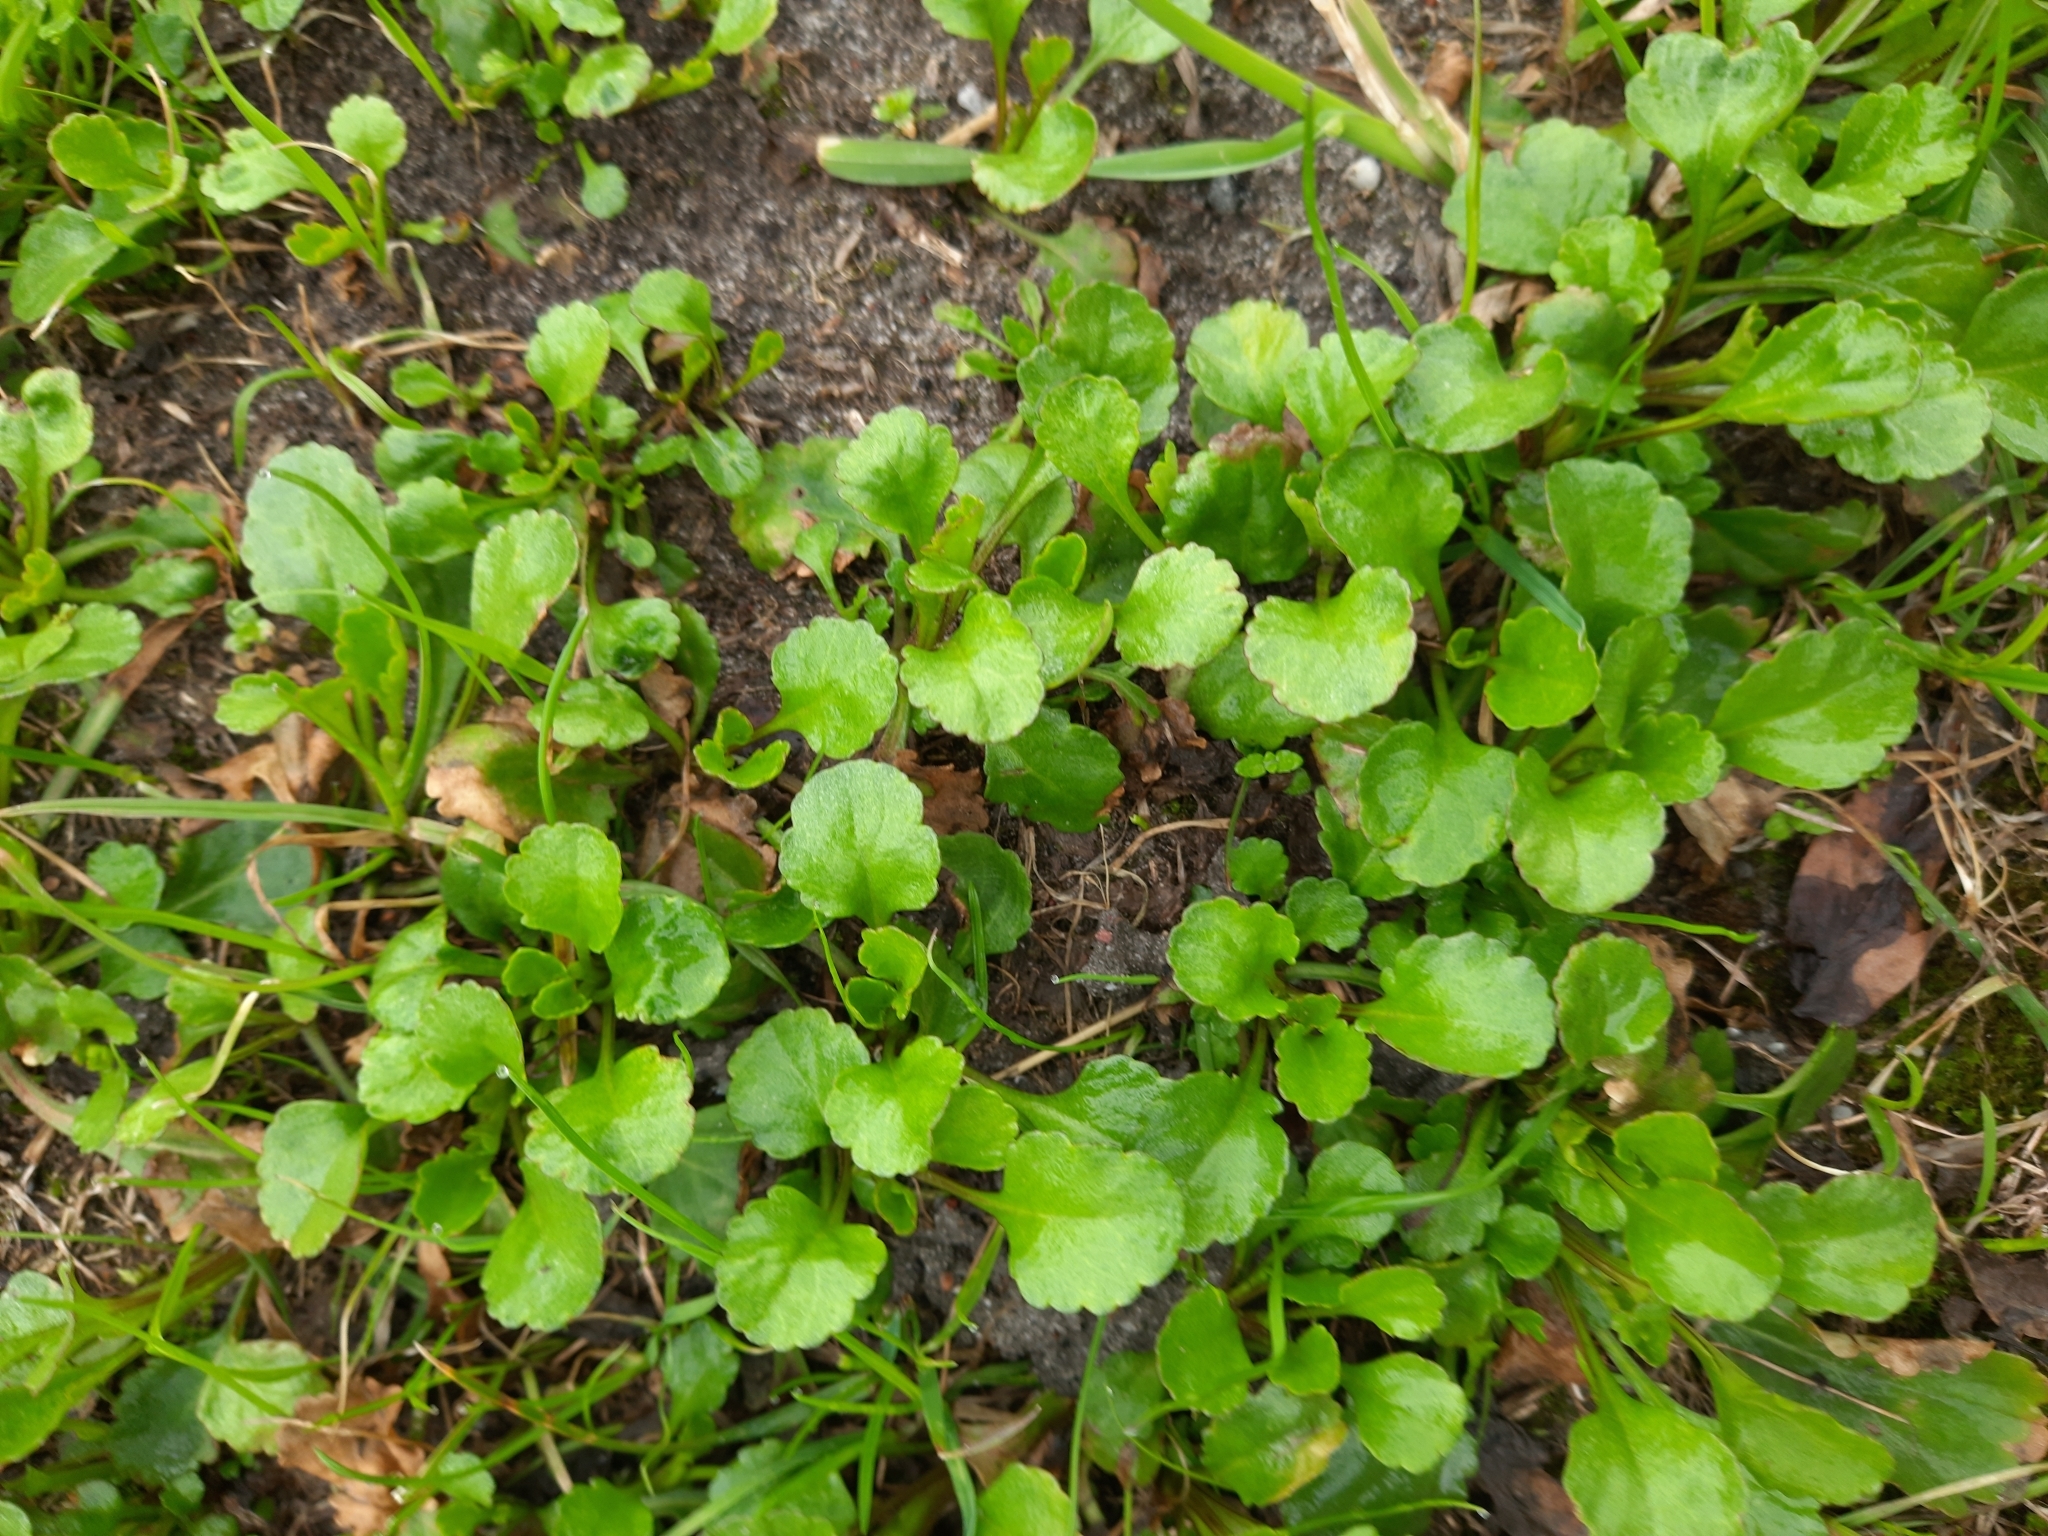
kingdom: Plantae
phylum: Tracheophyta
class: Magnoliopsida
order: Asterales
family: Asteraceae
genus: Leucanthemum
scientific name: Leucanthemum ircutianum
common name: Daisy
